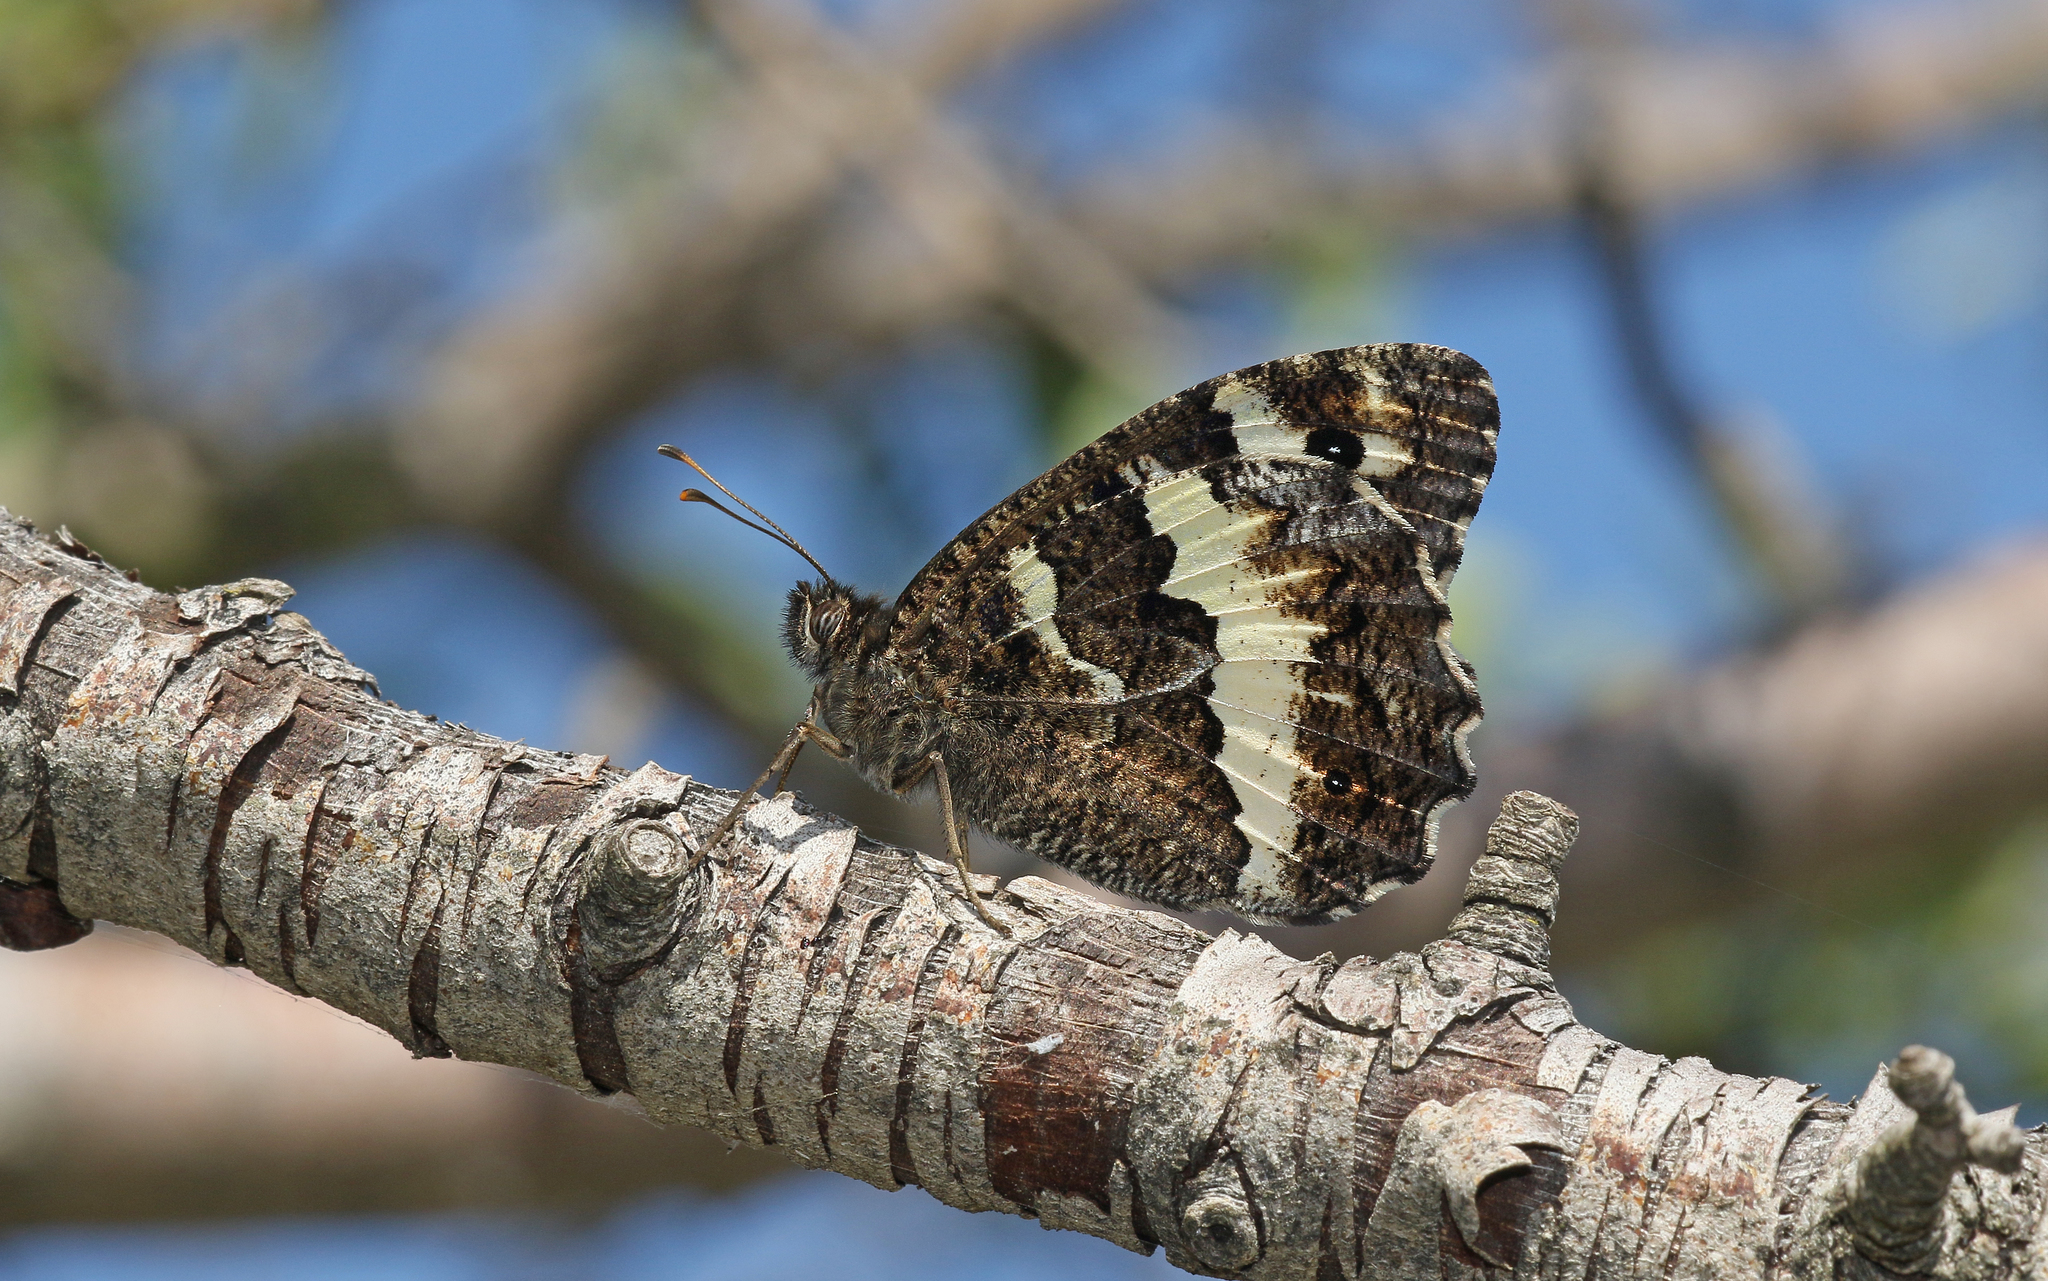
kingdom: Animalia
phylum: Arthropoda
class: Insecta
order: Lepidoptera
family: Lycaenidae
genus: Loweia
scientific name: Loweia tityrus
